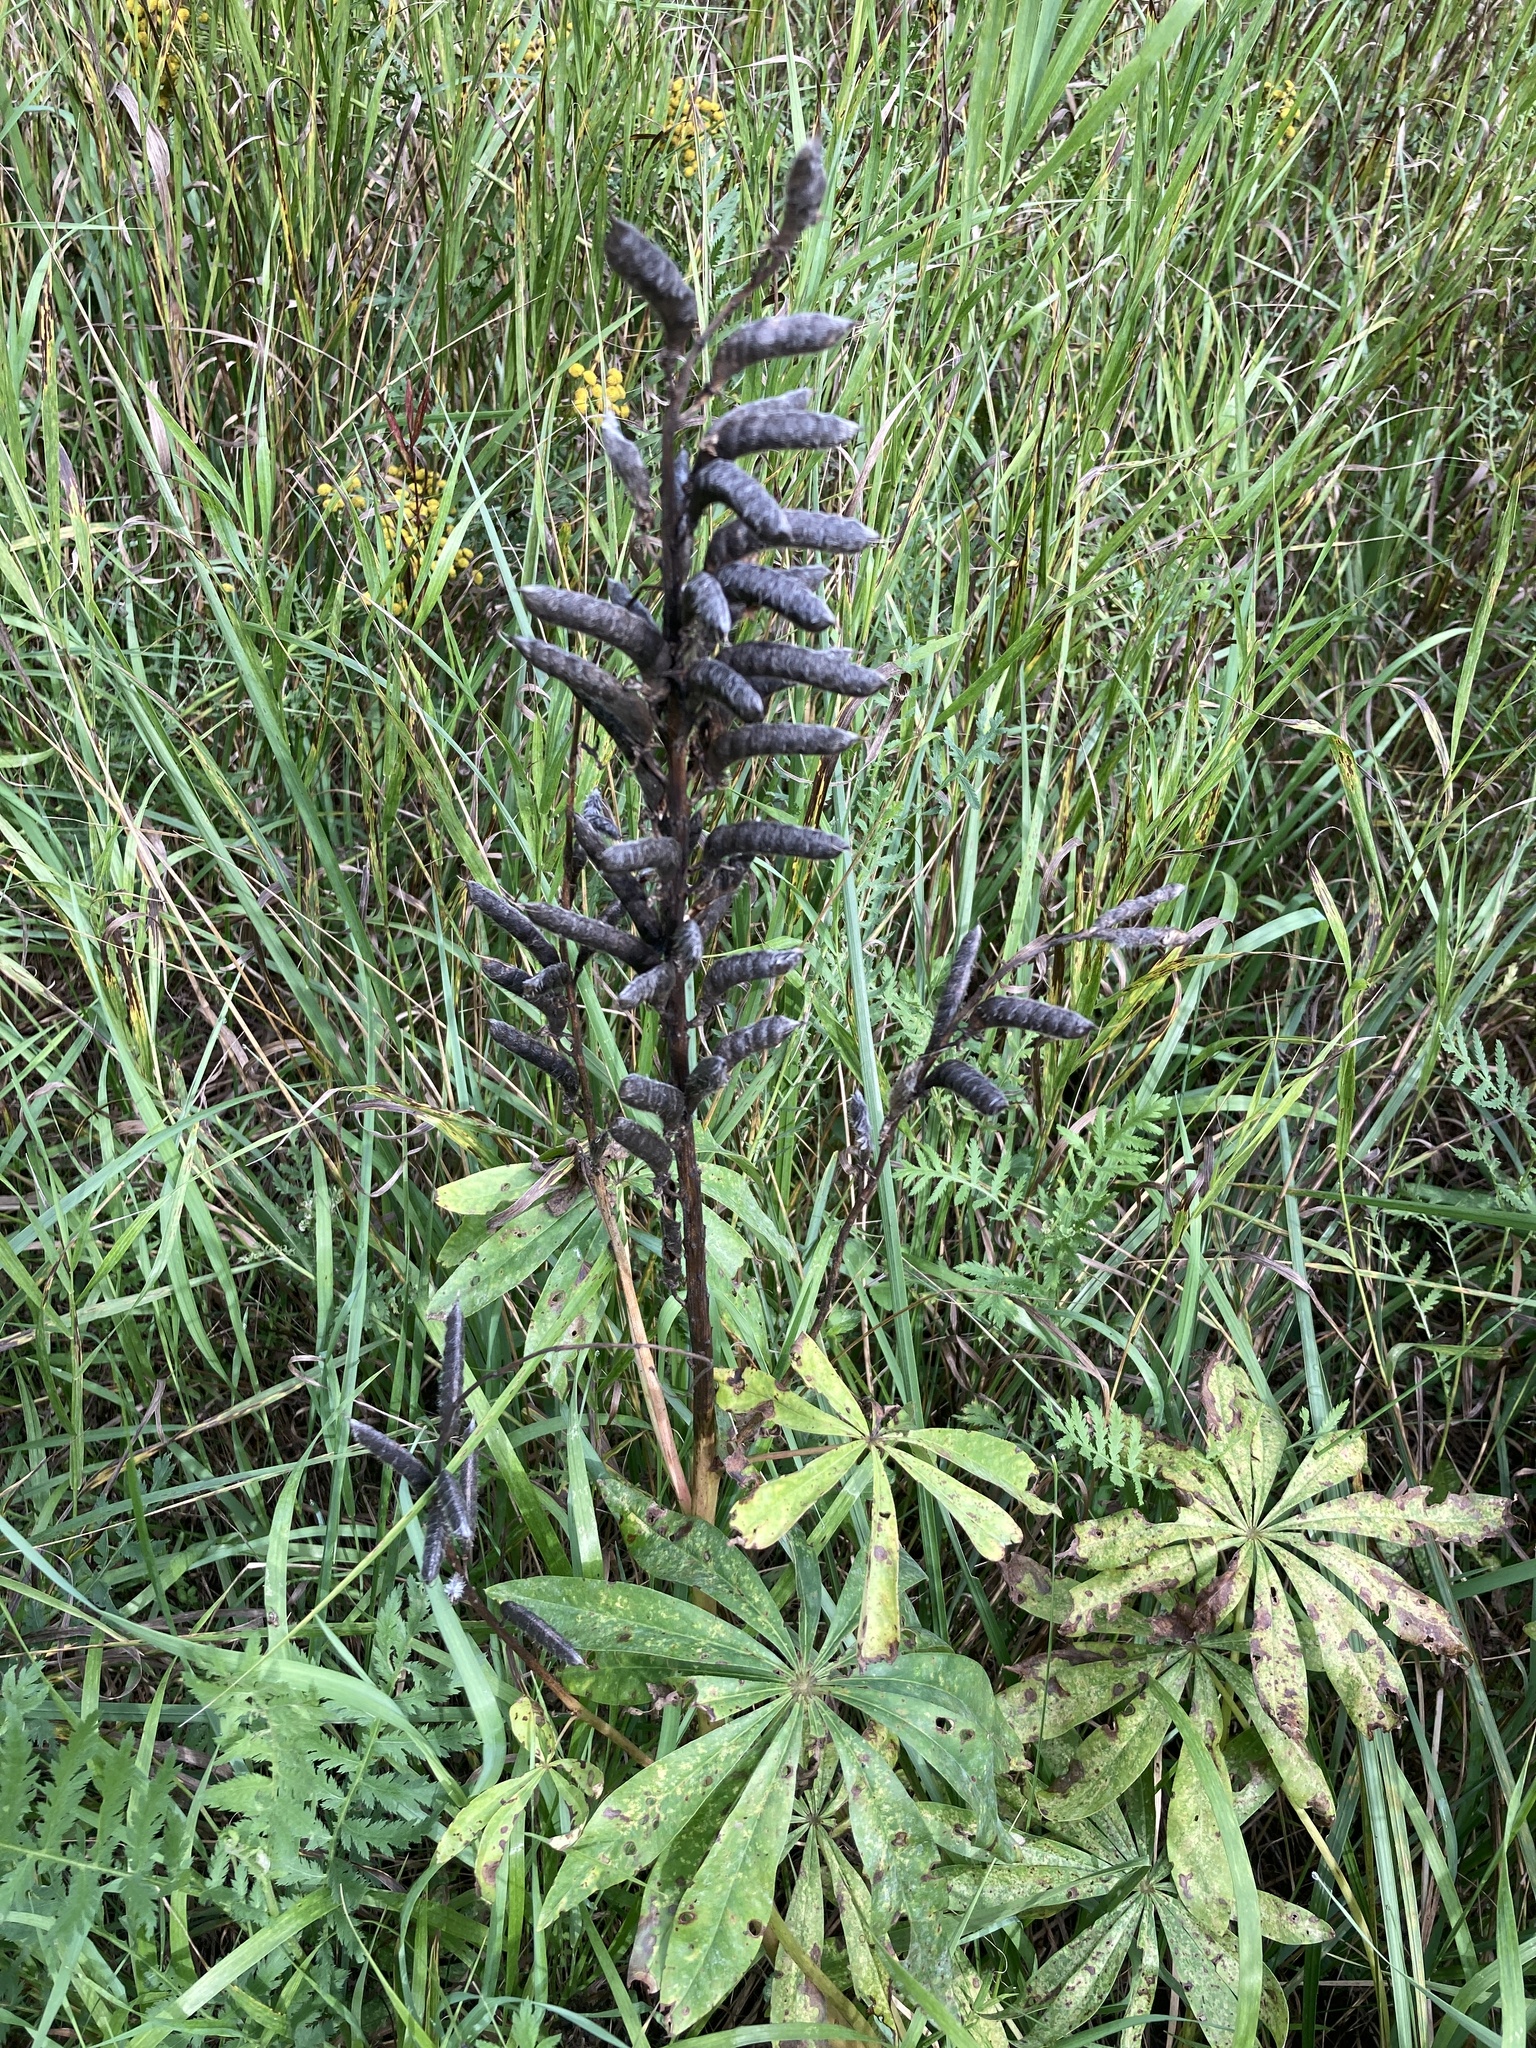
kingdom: Plantae
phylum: Tracheophyta
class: Magnoliopsida
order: Fabales
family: Fabaceae
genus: Lupinus
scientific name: Lupinus polyphyllus
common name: Garden lupin
